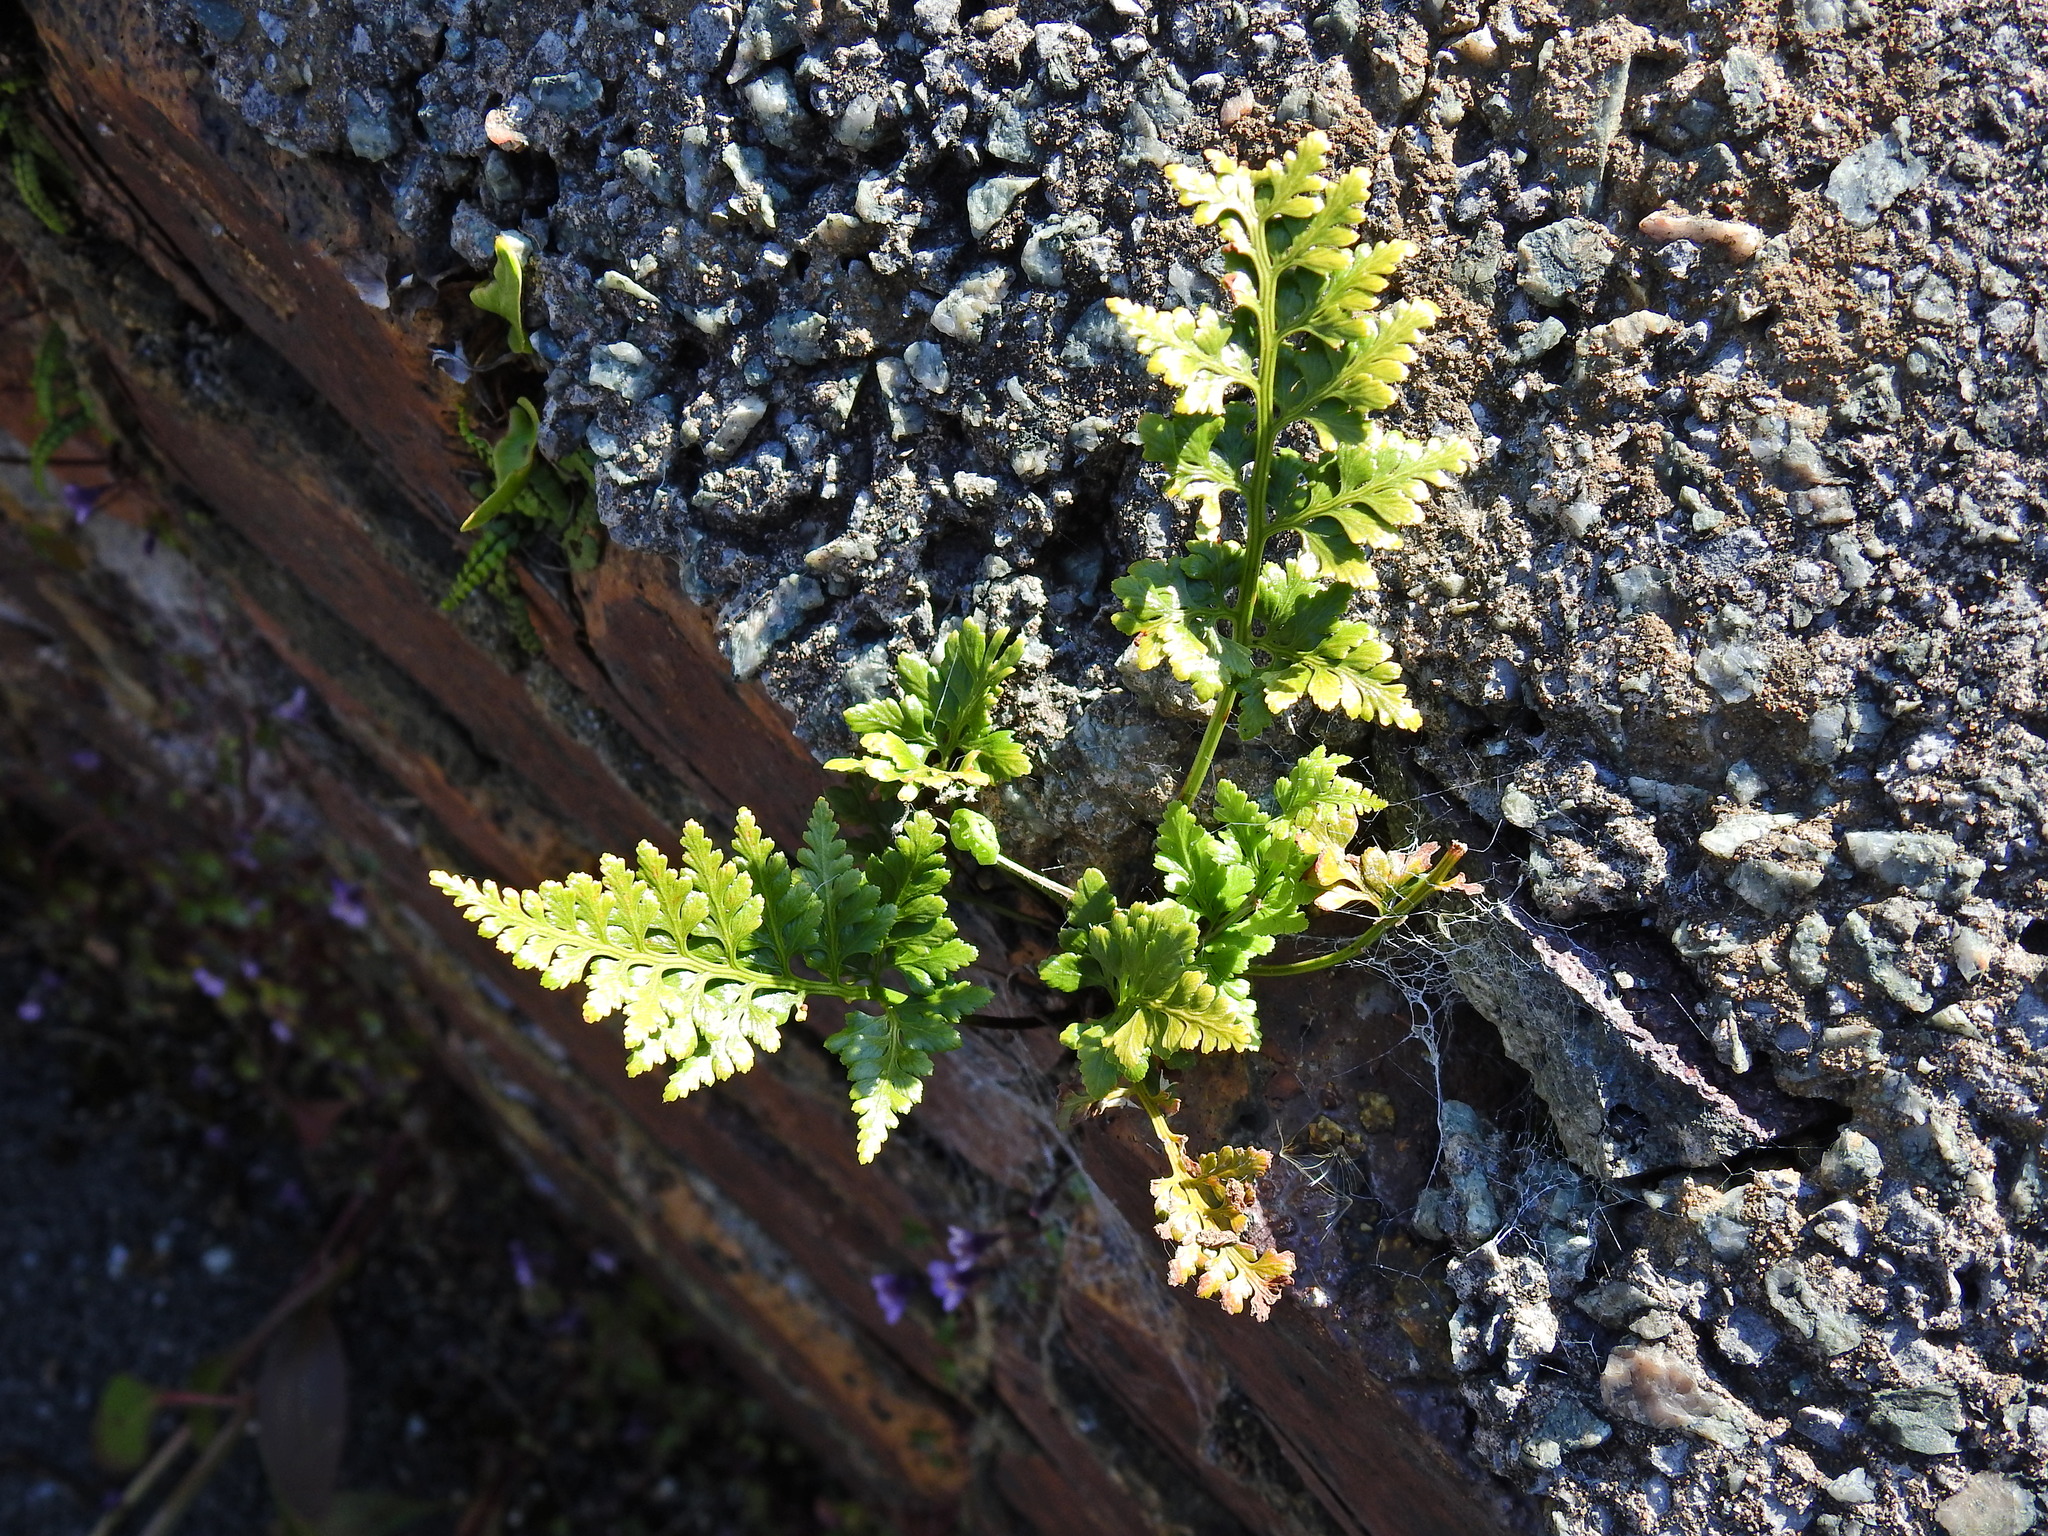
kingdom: Plantae
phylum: Tracheophyta
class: Polypodiopsida
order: Polypodiales
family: Aspleniaceae
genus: Asplenium
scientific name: Asplenium adiantum-nigrum
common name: Black spleenwort
